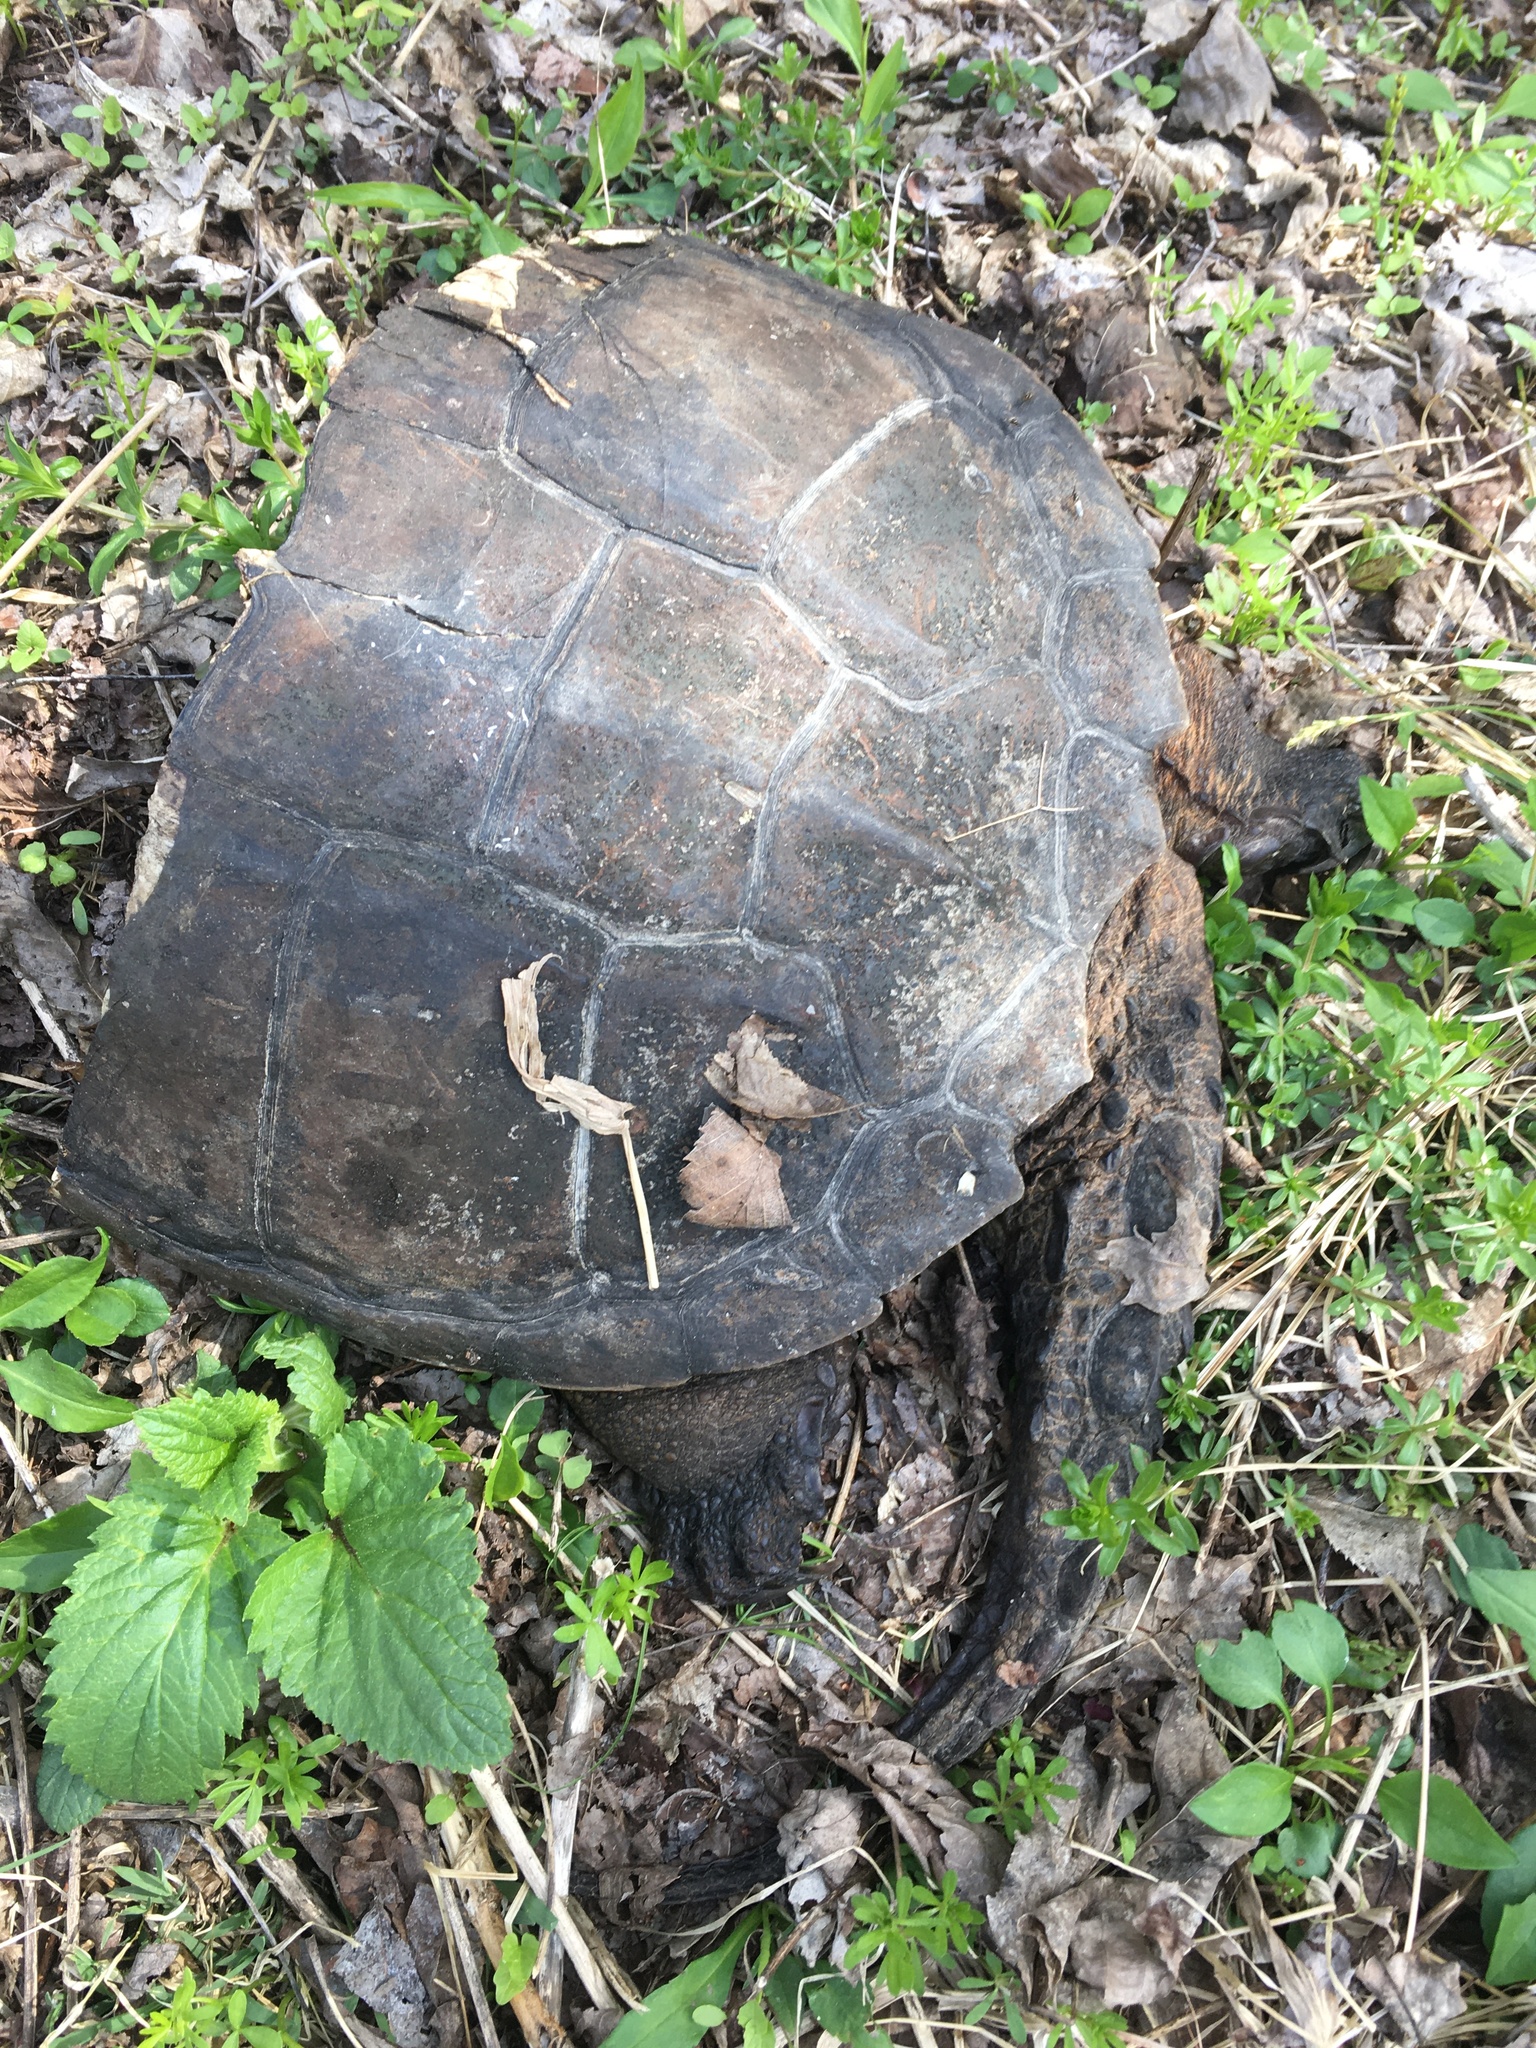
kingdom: Animalia
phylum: Chordata
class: Testudines
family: Chelydridae
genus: Chelydra
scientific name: Chelydra serpentina
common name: Common snapping turtle
